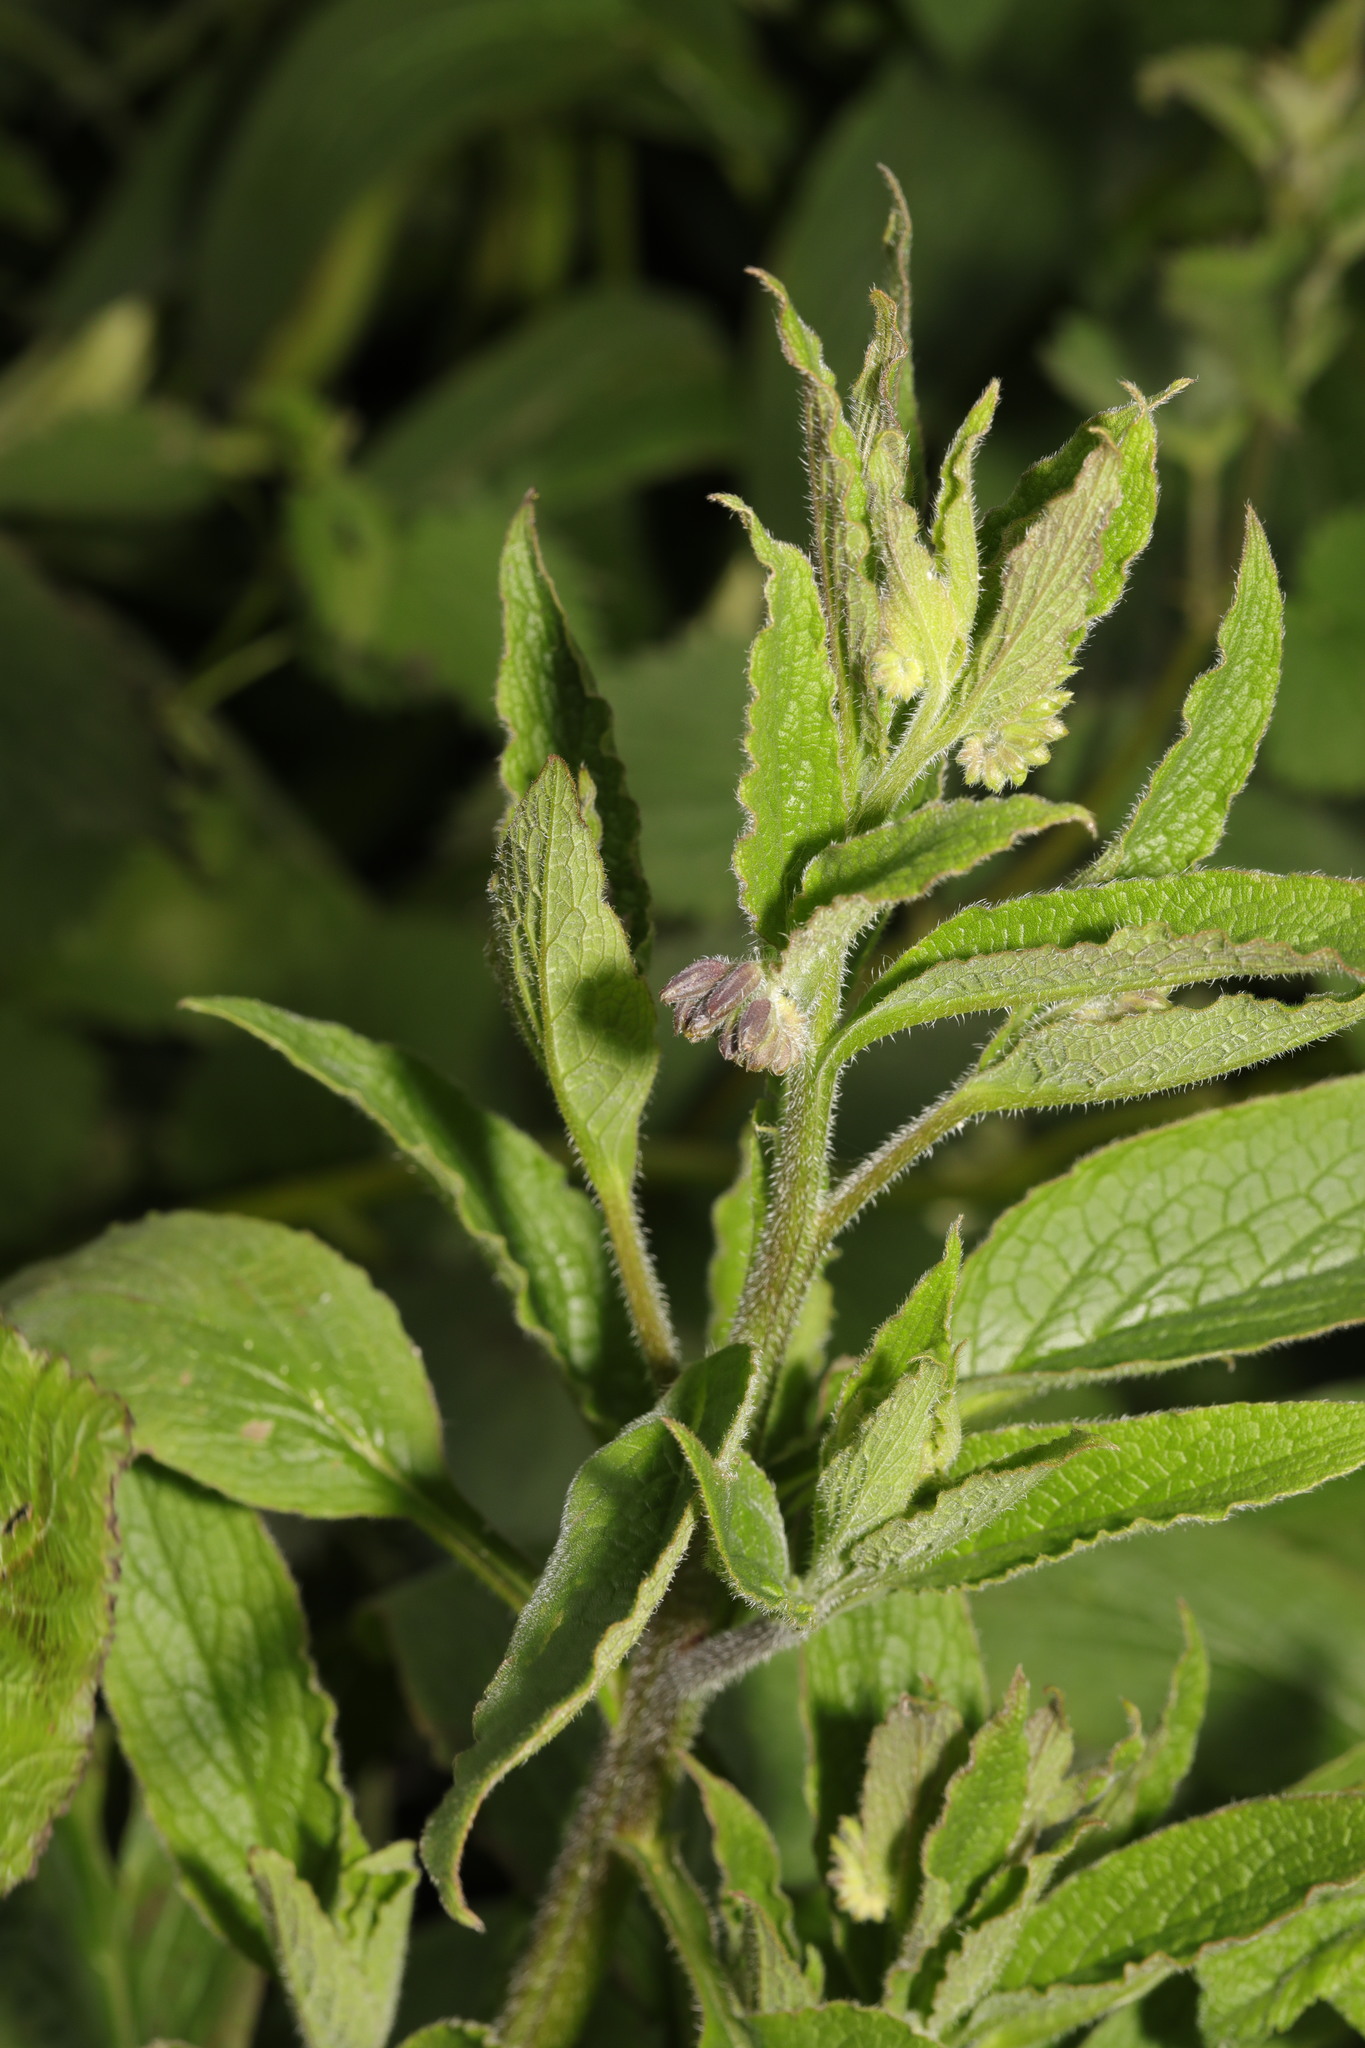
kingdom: Plantae
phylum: Tracheophyta
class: Magnoliopsida
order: Boraginales
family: Boraginaceae
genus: Symphytum
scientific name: Symphytum uplandicum
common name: Russian comfrey
